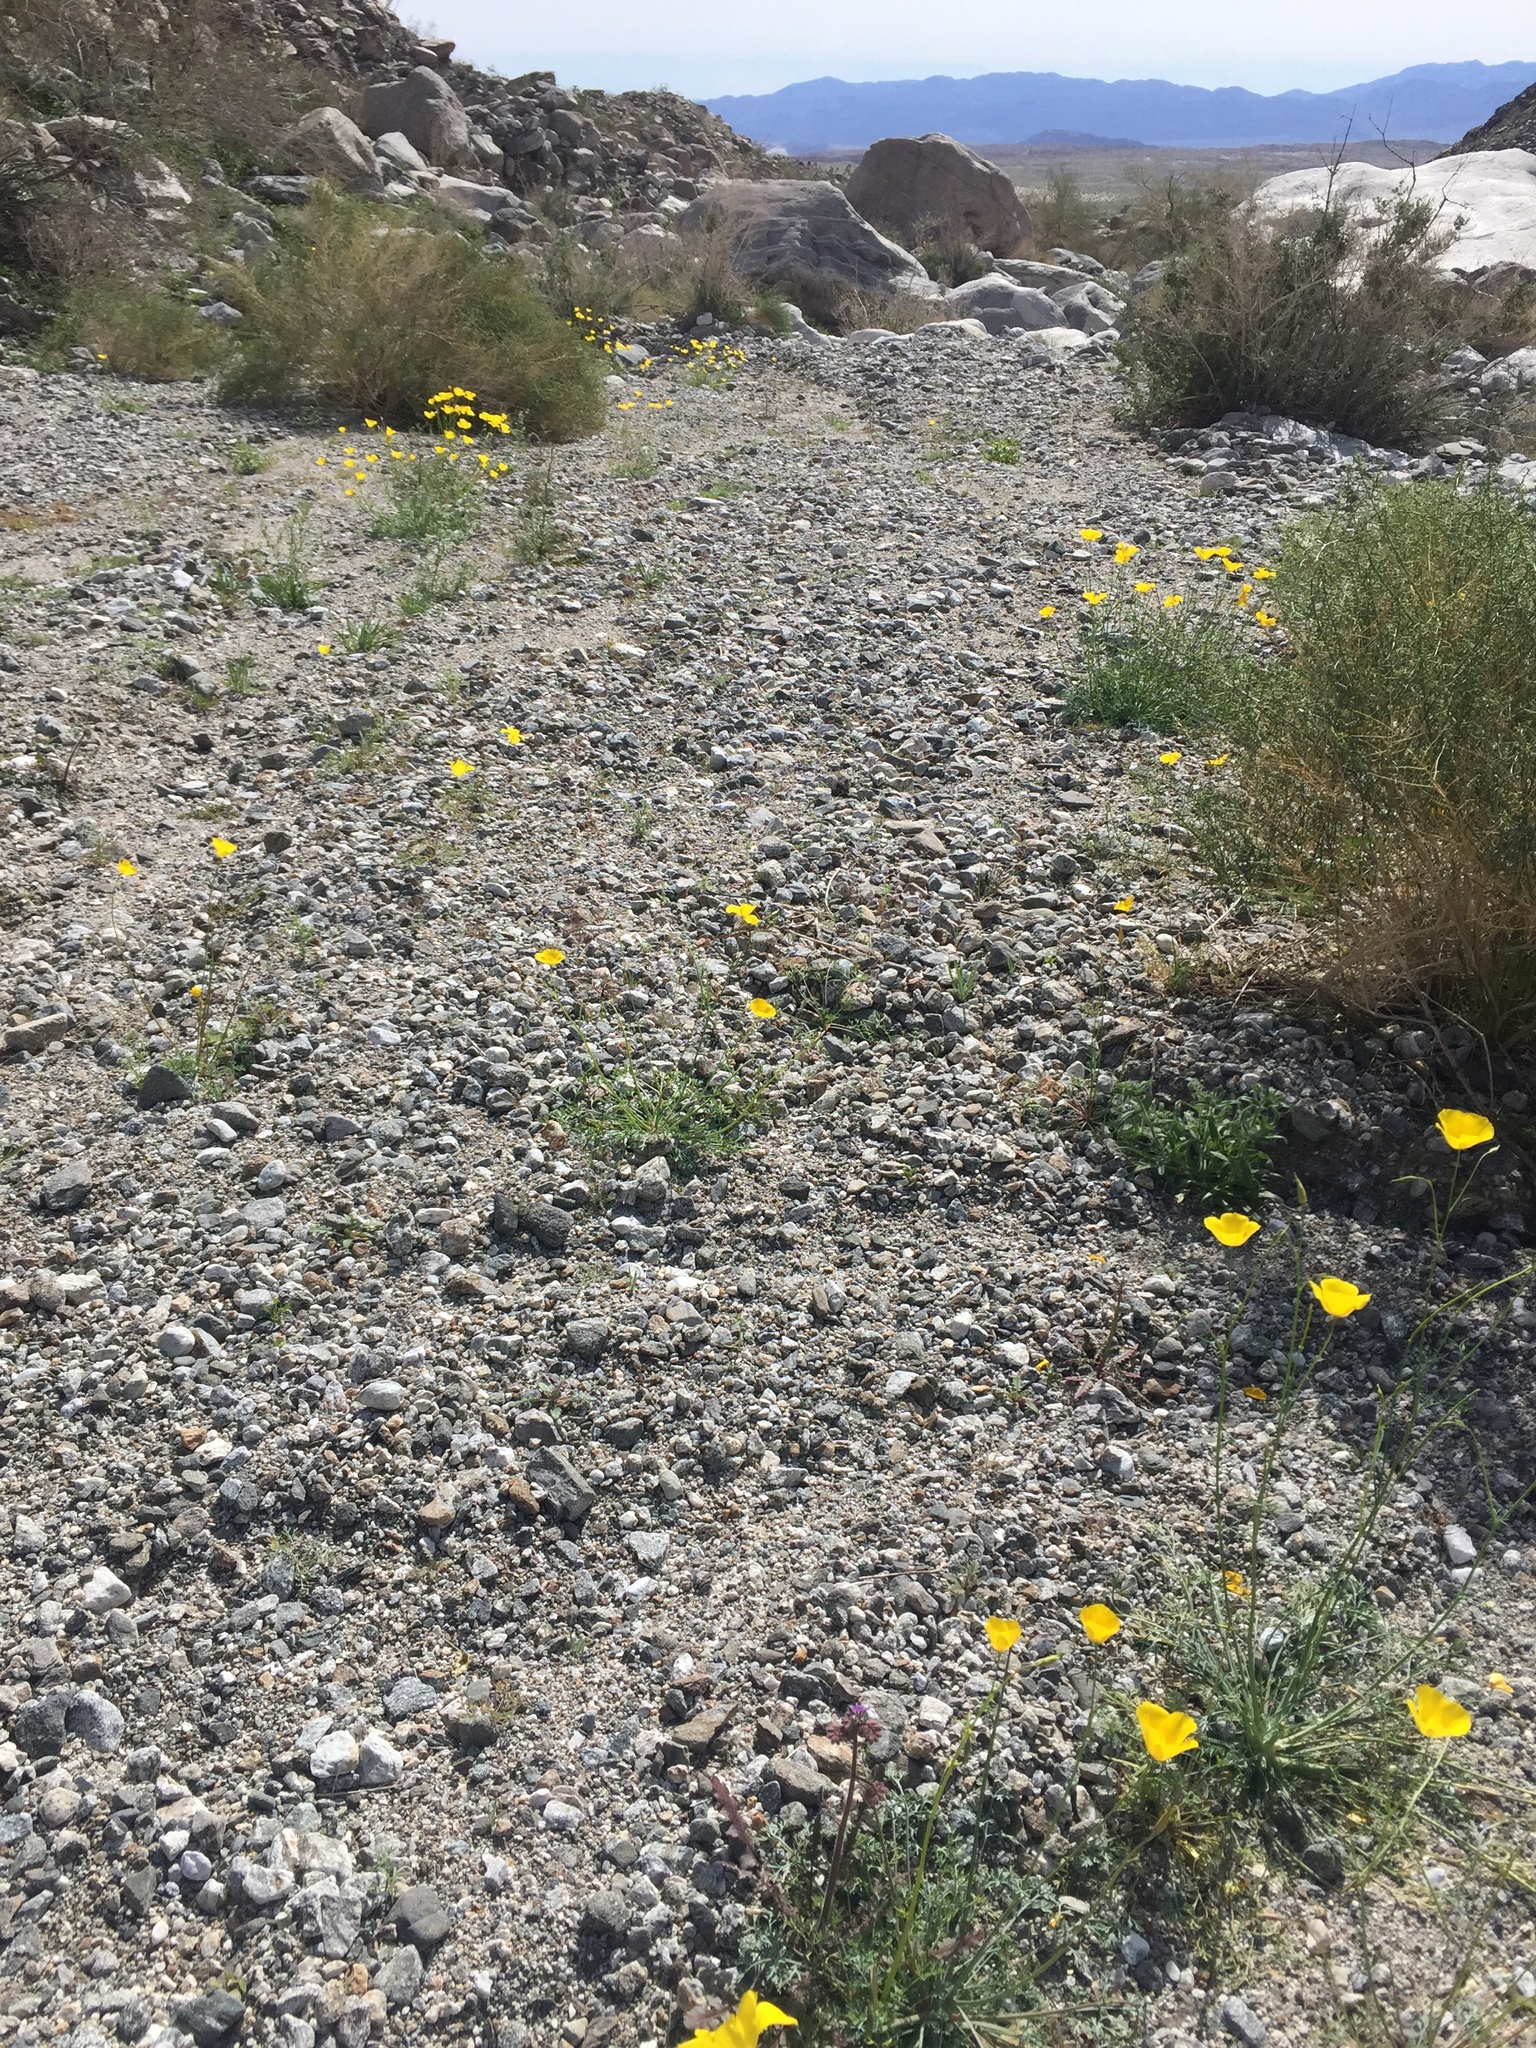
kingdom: Plantae
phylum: Tracheophyta
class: Magnoliopsida
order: Ranunculales
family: Papaveraceae
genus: Eschscholzia
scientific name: Eschscholzia parishii
